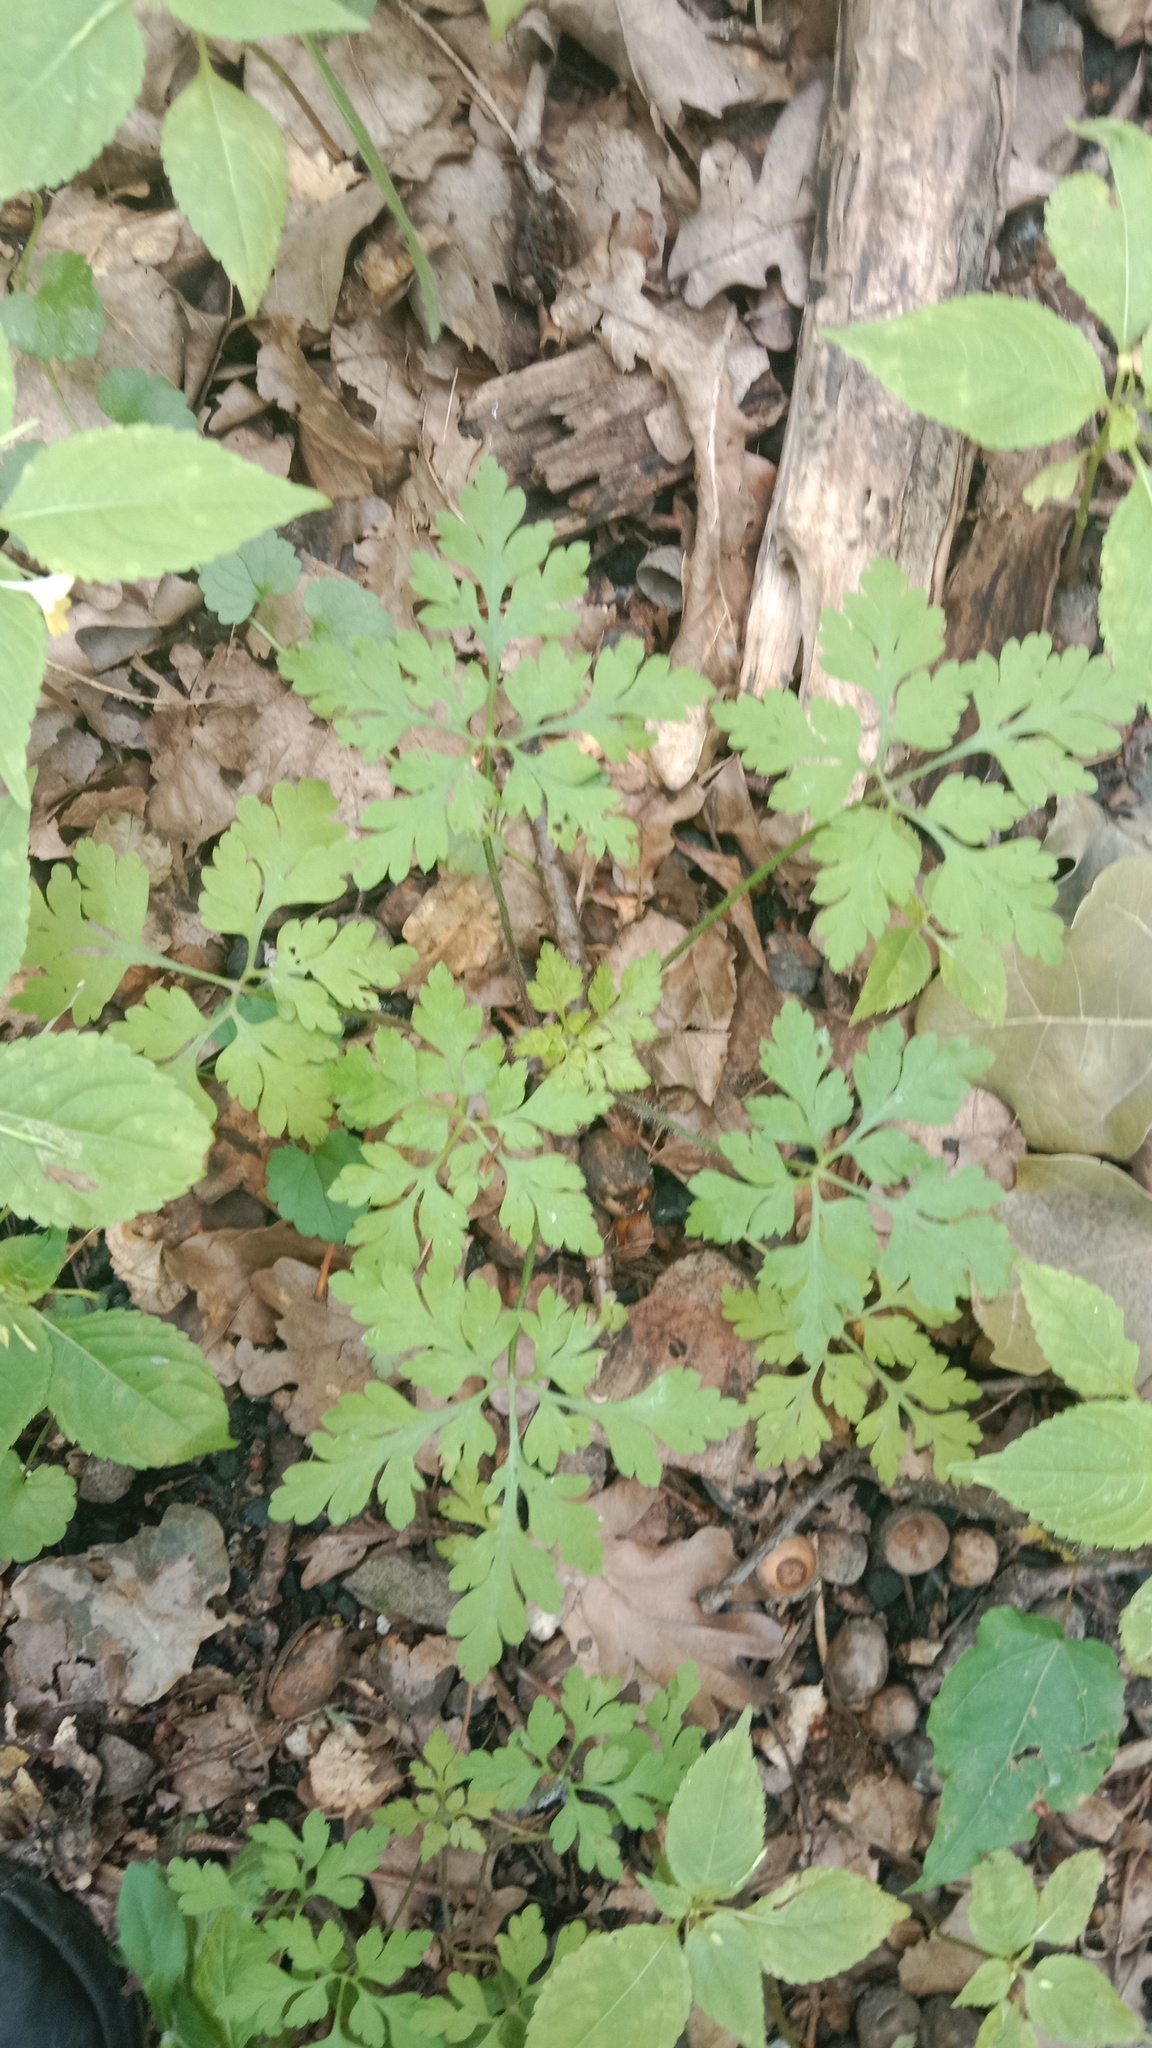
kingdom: Plantae
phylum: Tracheophyta
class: Magnoliopsida
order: Geraniales
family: Geraniaceae
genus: Geranium
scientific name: Geranium robertianum
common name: Herb-robert
